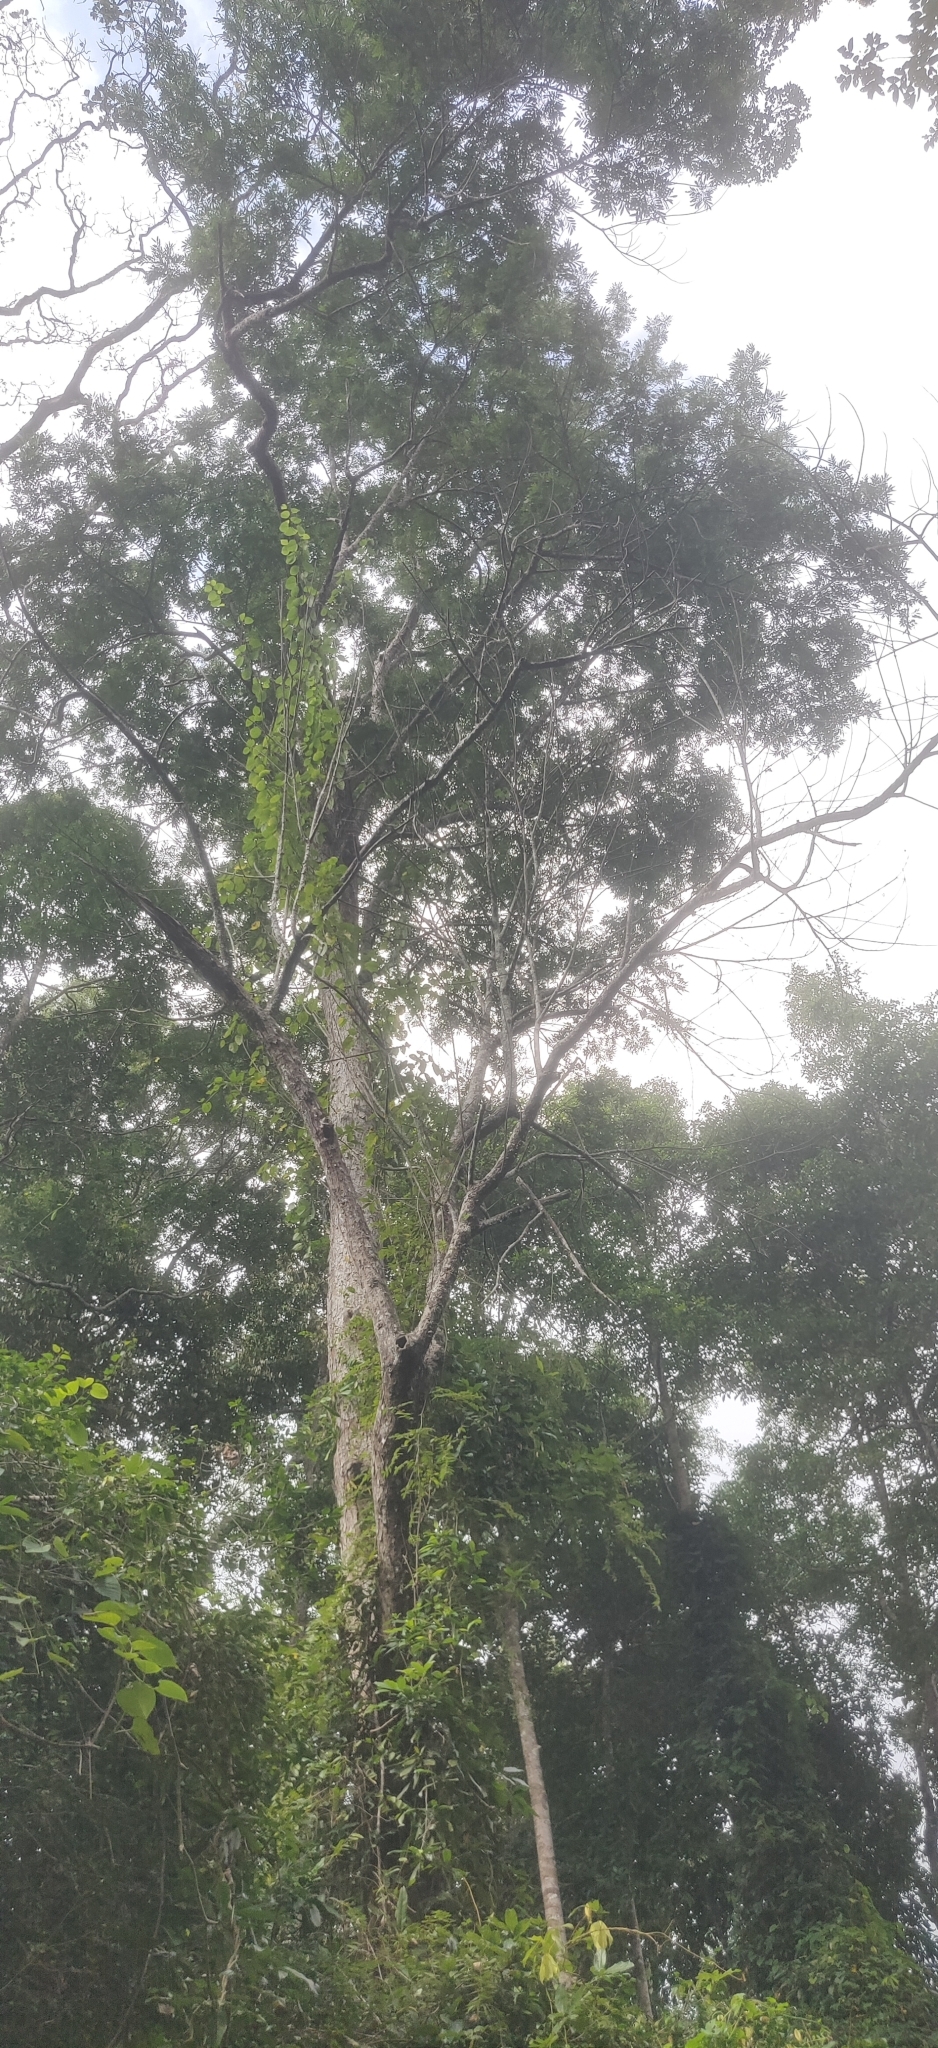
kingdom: Plantae
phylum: Tracheophyta
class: Magnoliopsida
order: Sapindales
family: Sapindaceae
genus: Filicium
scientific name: Filicium decipiens
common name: Ferntree
